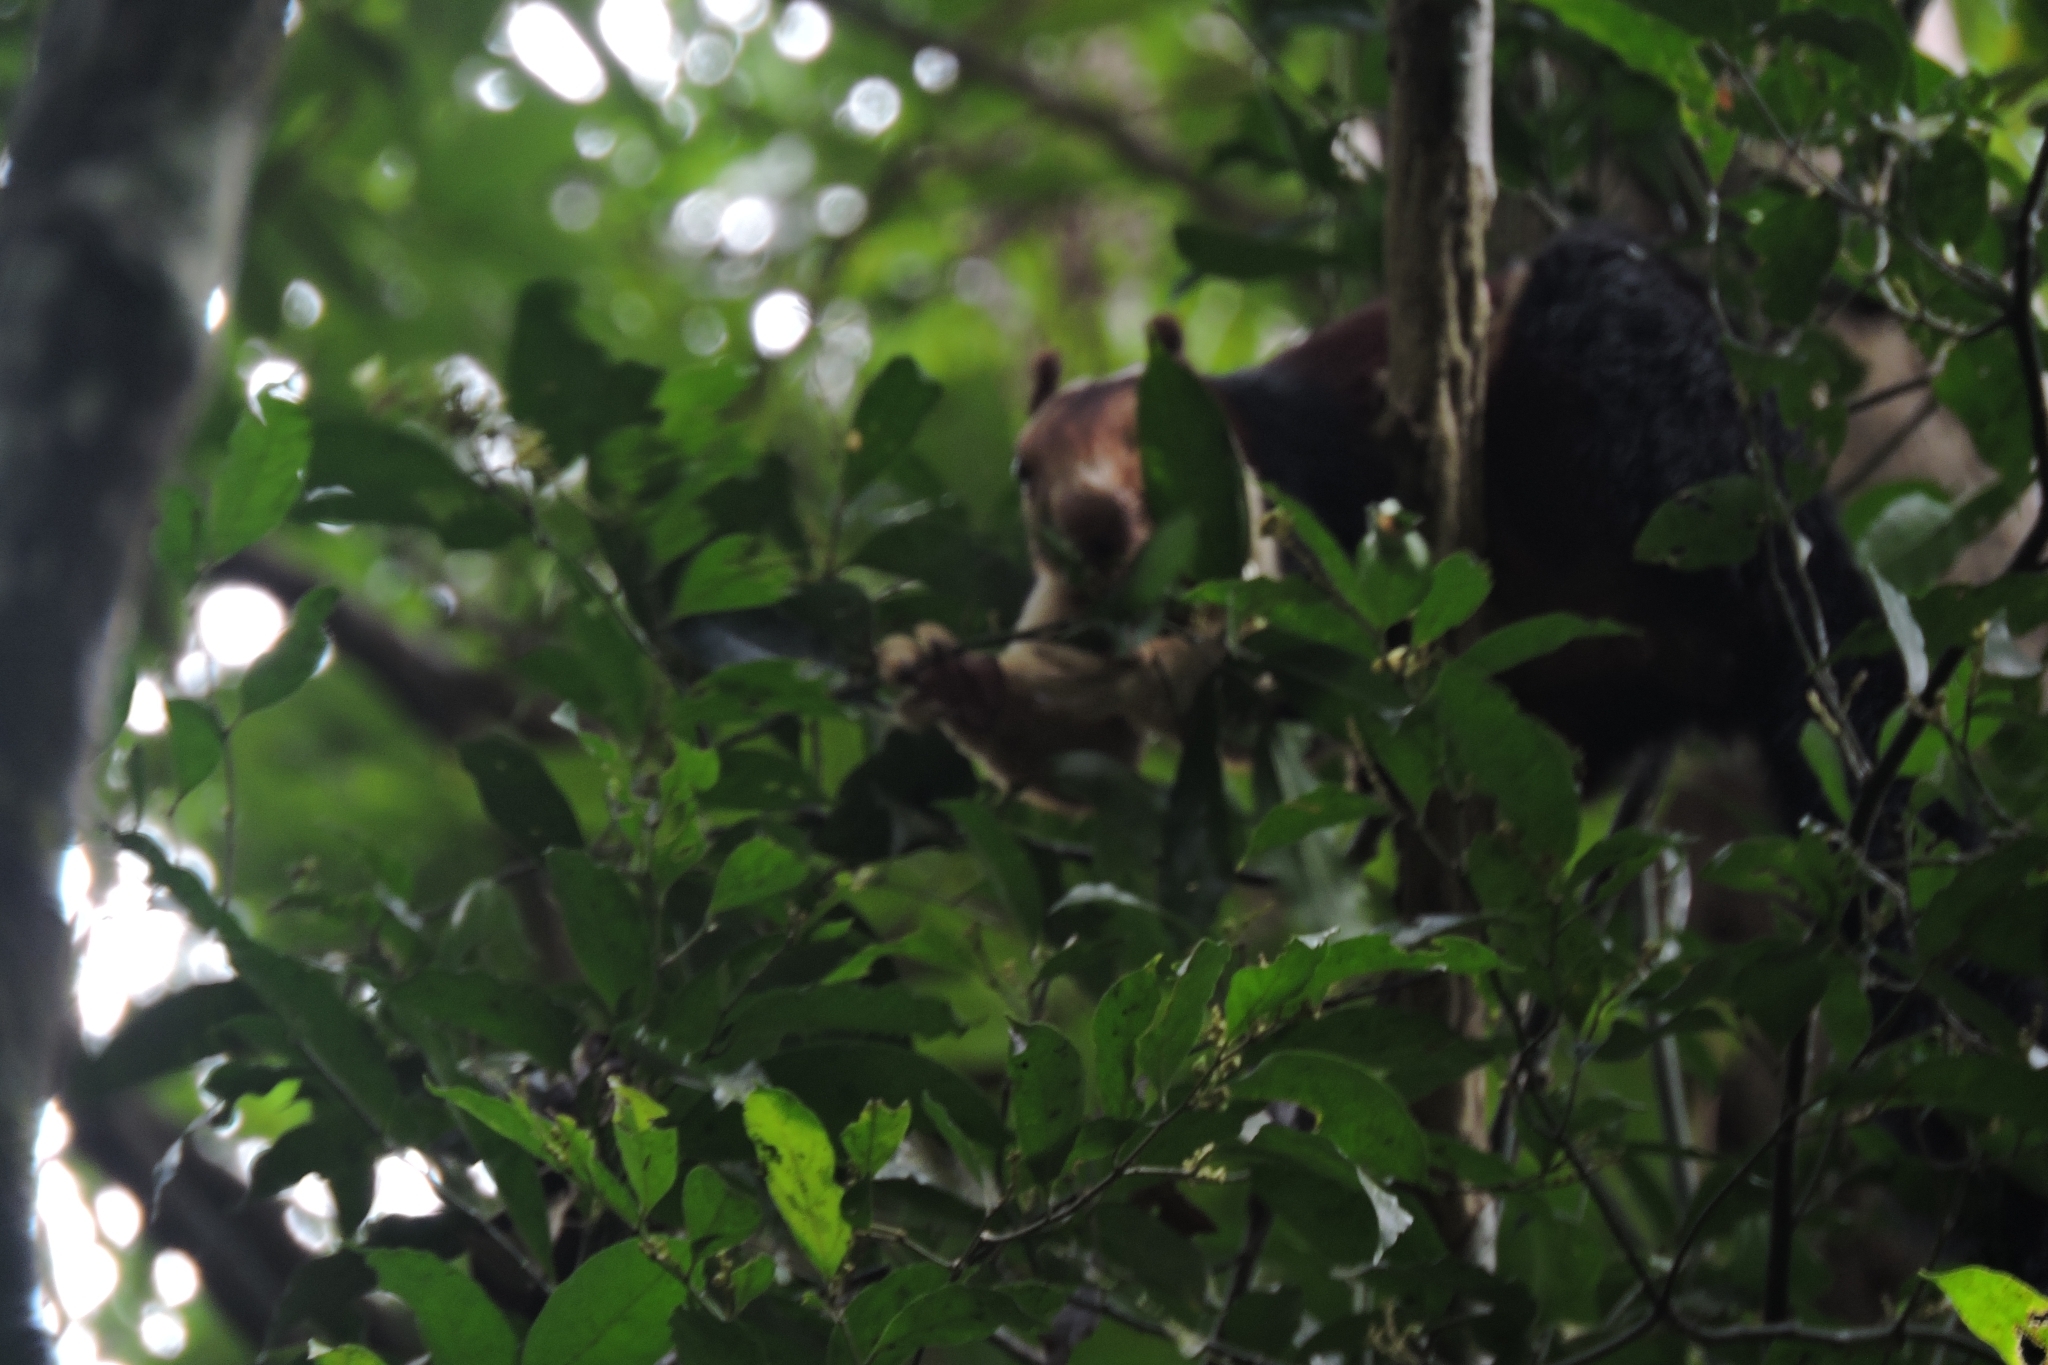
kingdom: Animalia
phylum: Chordata
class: Mammalia
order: Rodentia
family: Sciuridae
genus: Ratufa
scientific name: Ratufa indica
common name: Indian giant squirrel
